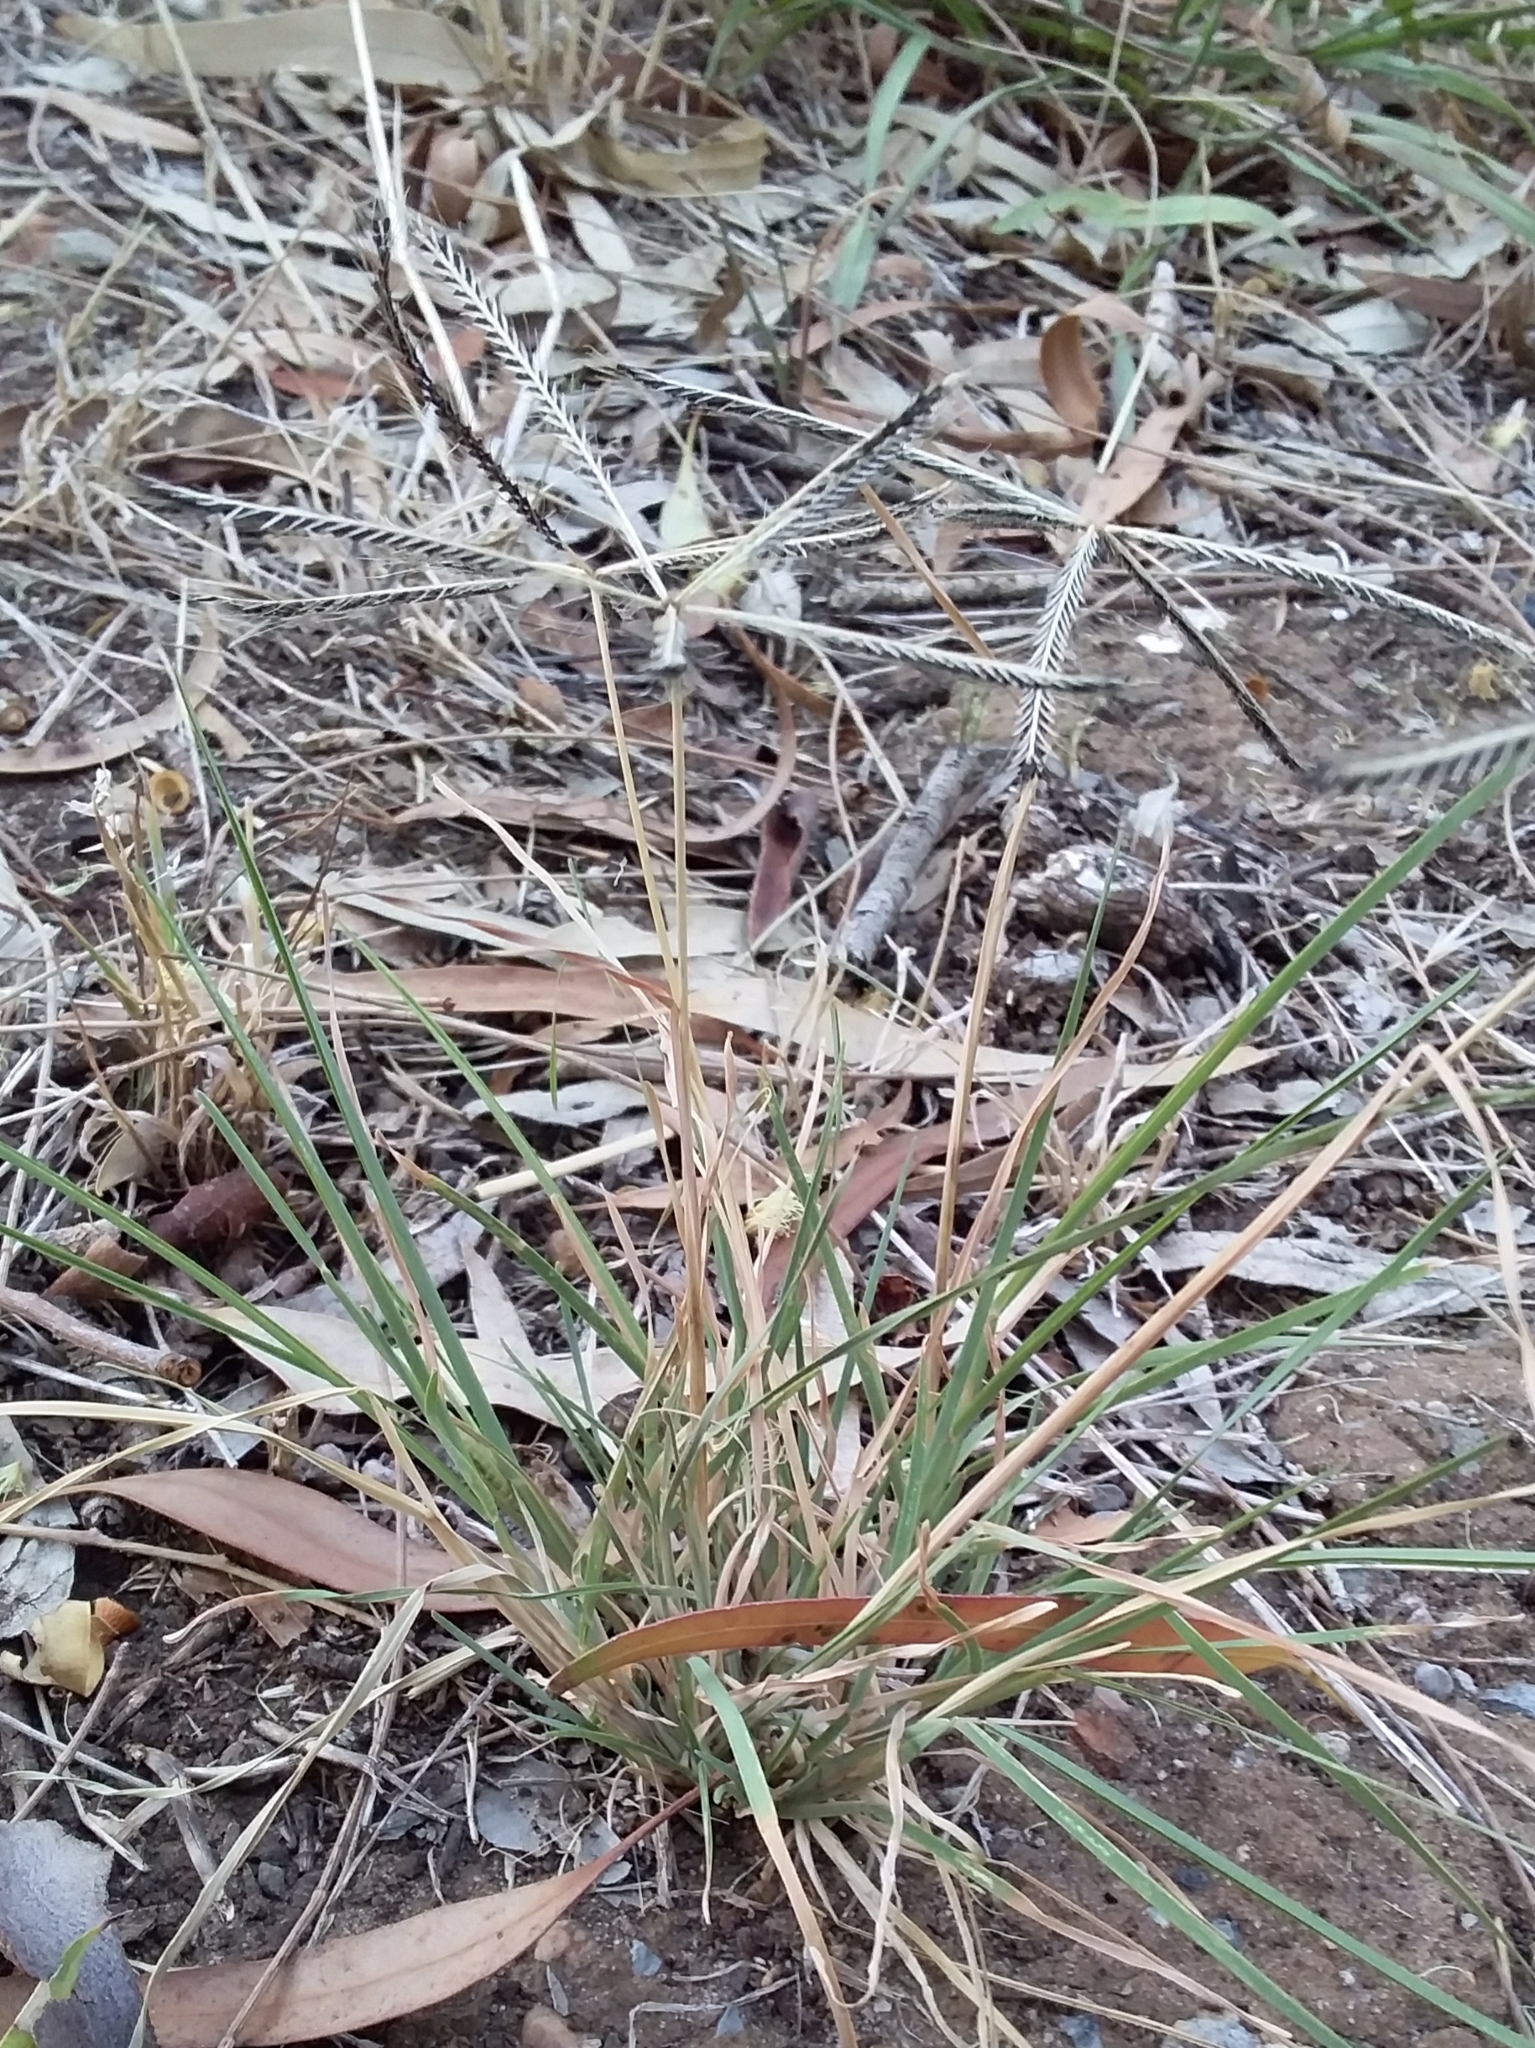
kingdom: Plantae
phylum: Tracheophyta
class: Liliopsida
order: Poales
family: Poaceae
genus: Chloris
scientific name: Chloris truncata
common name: Windmill-grass
